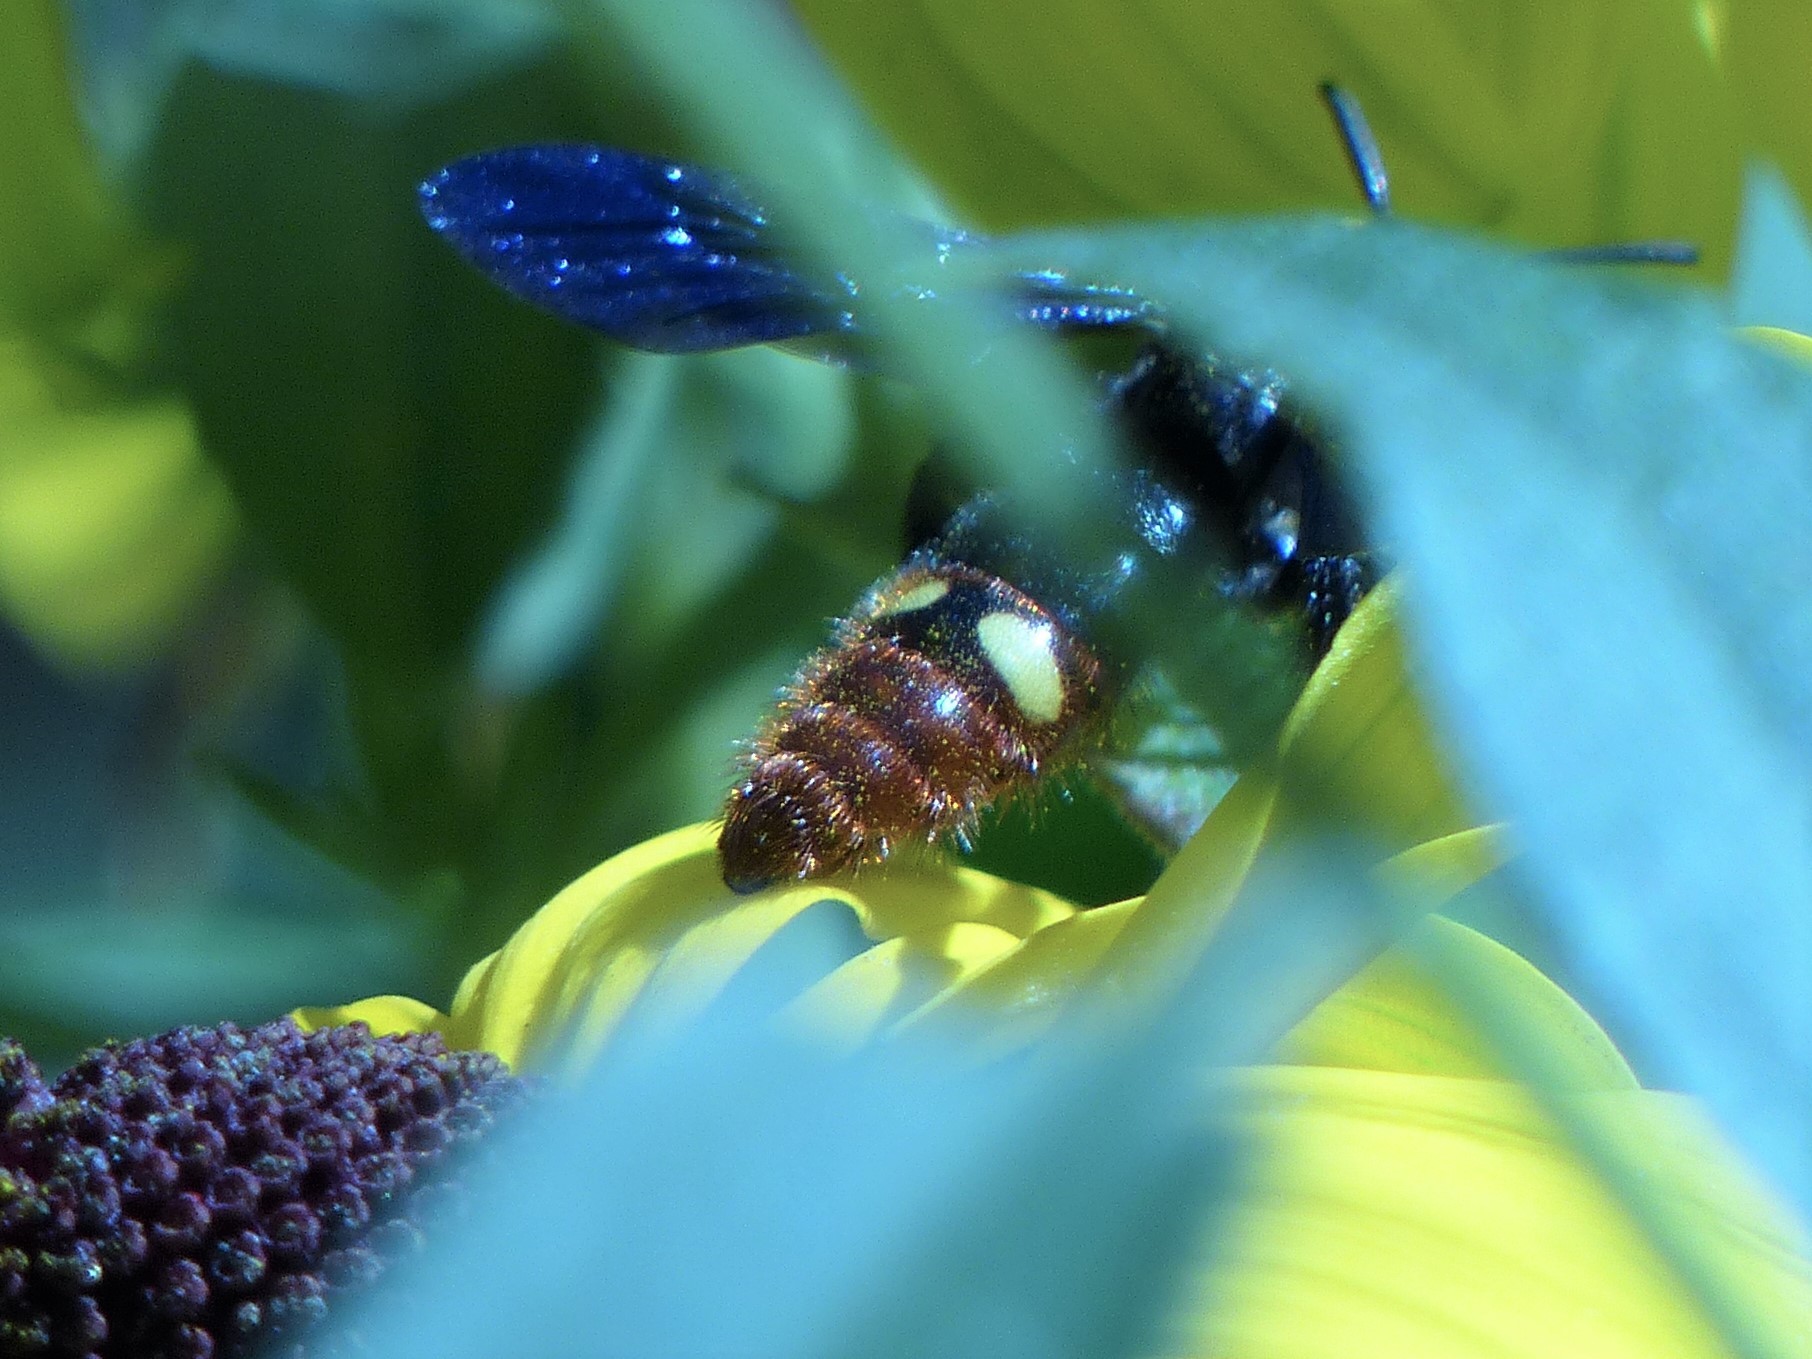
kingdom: Animalia
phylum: Arthropoda
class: Insecta
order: Hymenoptera
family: Scoliidae
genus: Scolia
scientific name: Scolia dubia
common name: Blue-winged scoliid wasp
